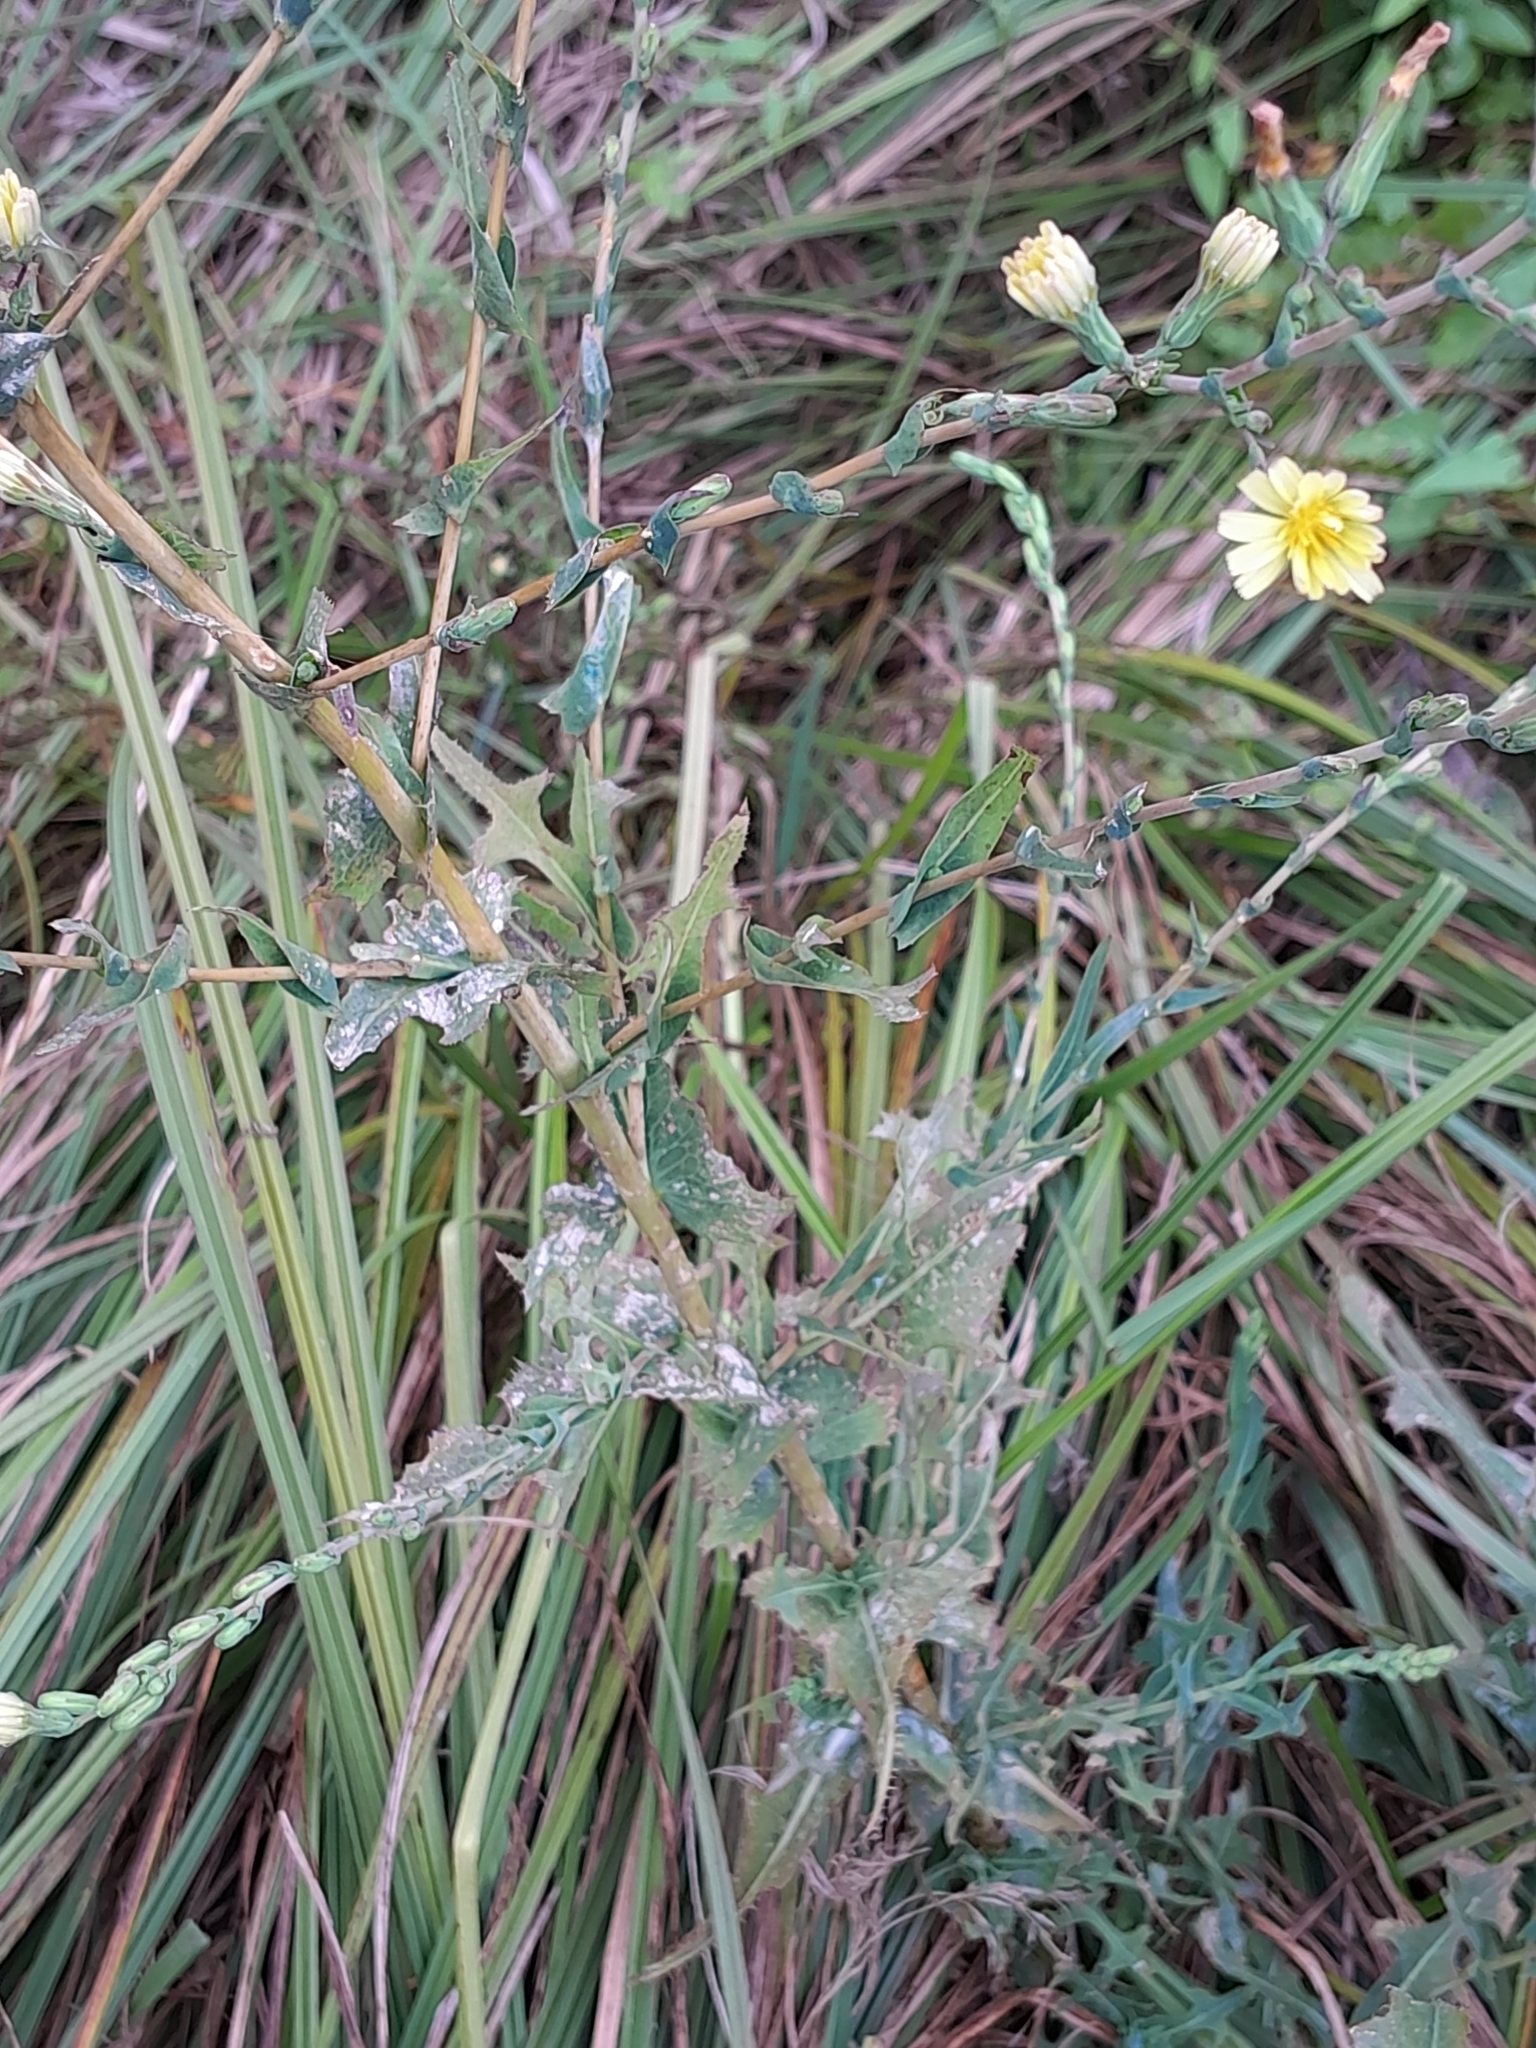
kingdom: Plantae
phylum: Tracheophyta
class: Magnoliopsida
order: Asterales
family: Asteraceae
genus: Lactuca
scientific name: Lactuca serriola
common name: Prickly lettuce
